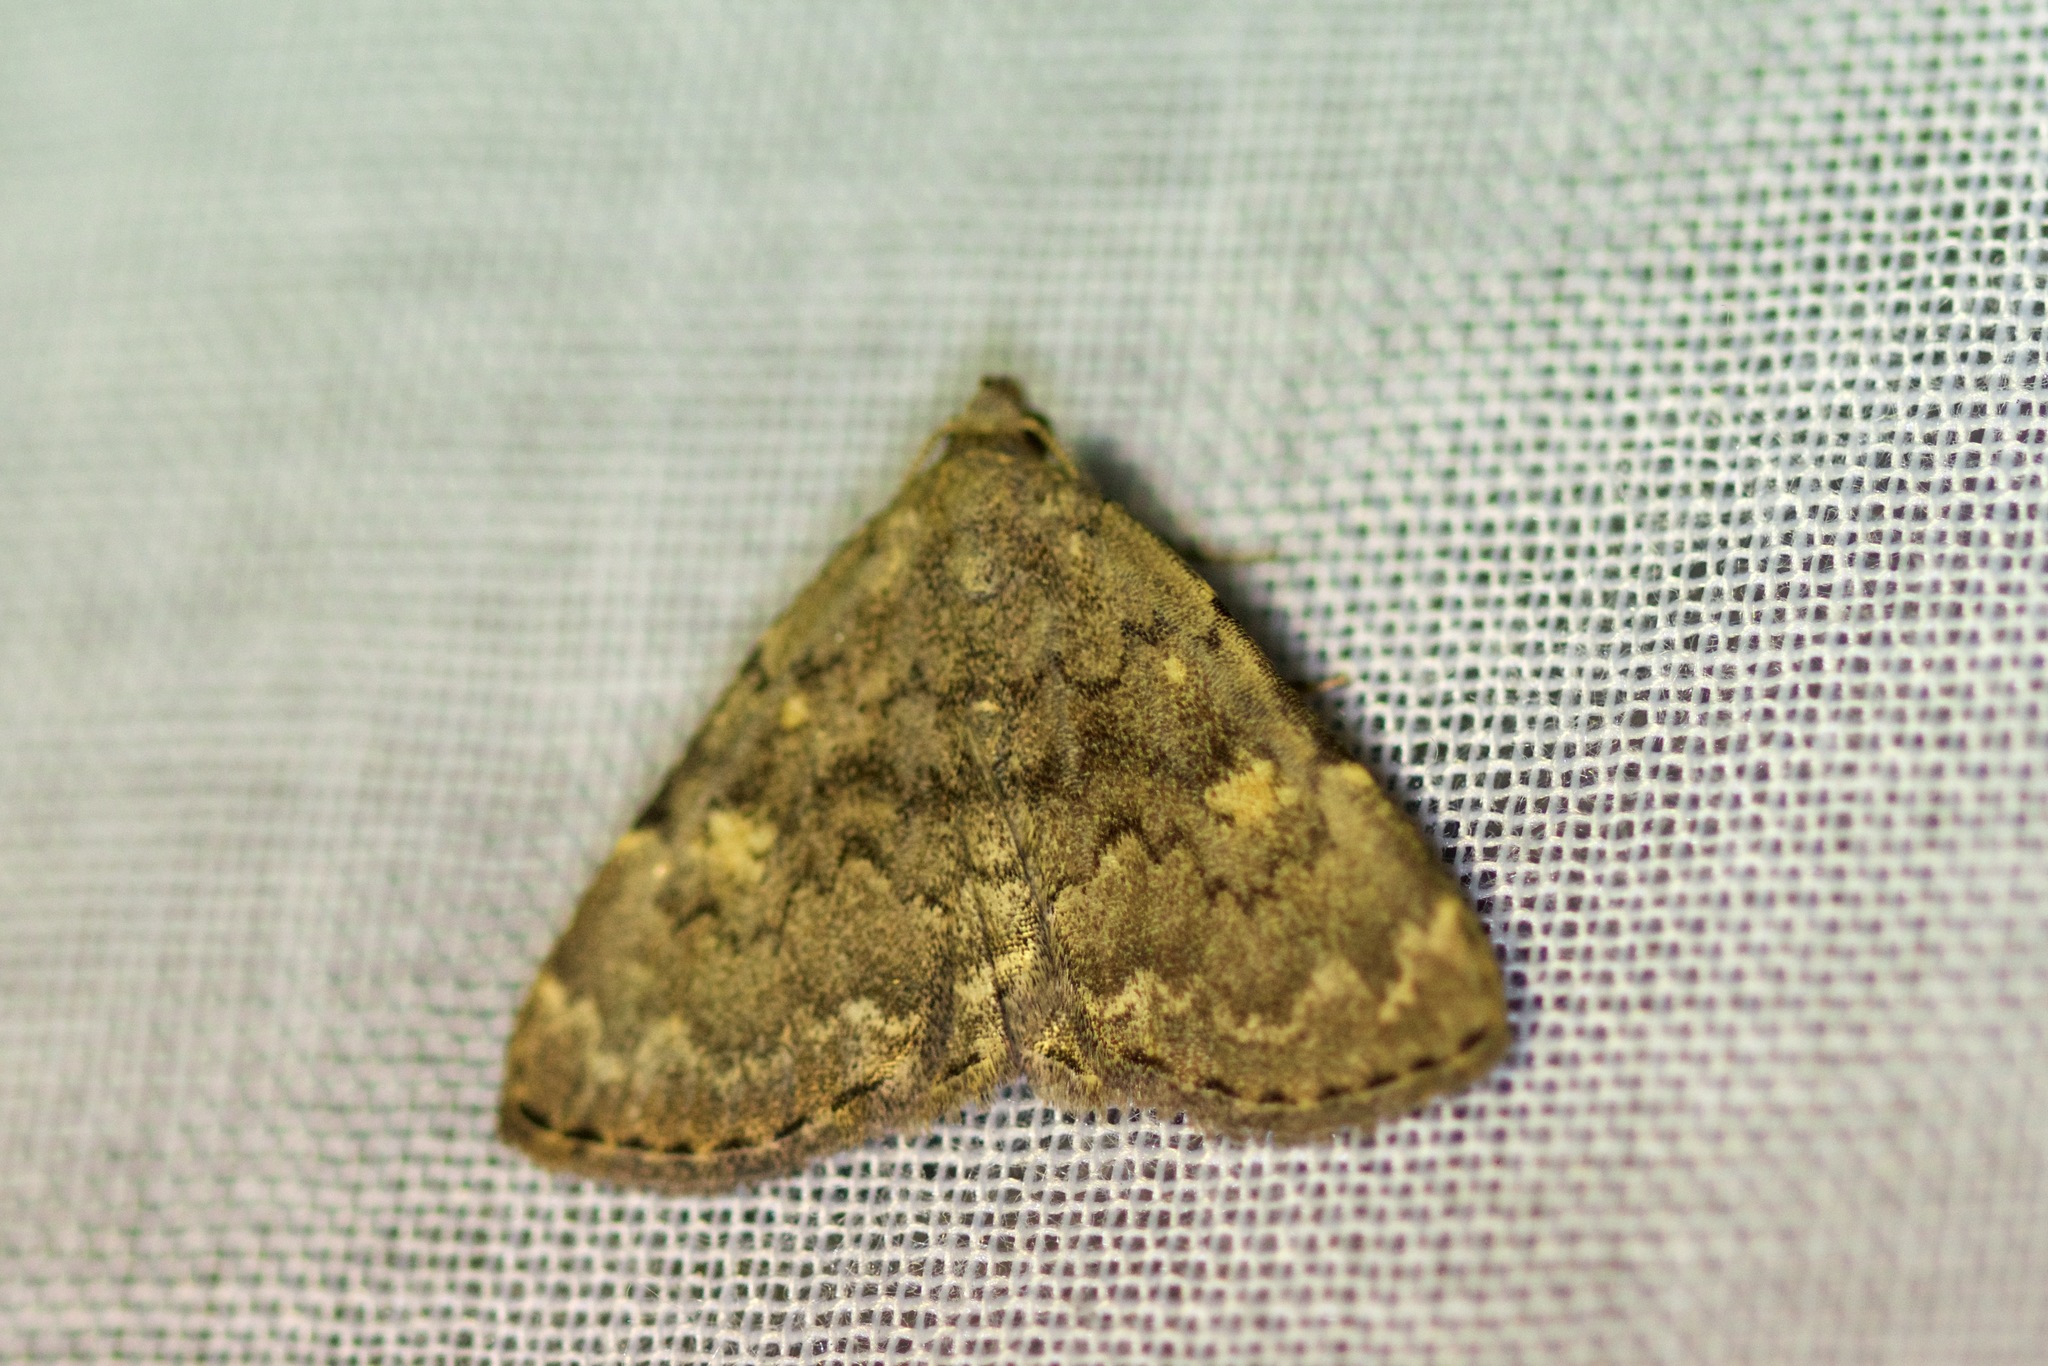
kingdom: Animalia
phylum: Arthropoda
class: Insecta
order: Lepidoptera
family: Erebidae
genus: Idia
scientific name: Idia aemula
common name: Common idia moth
